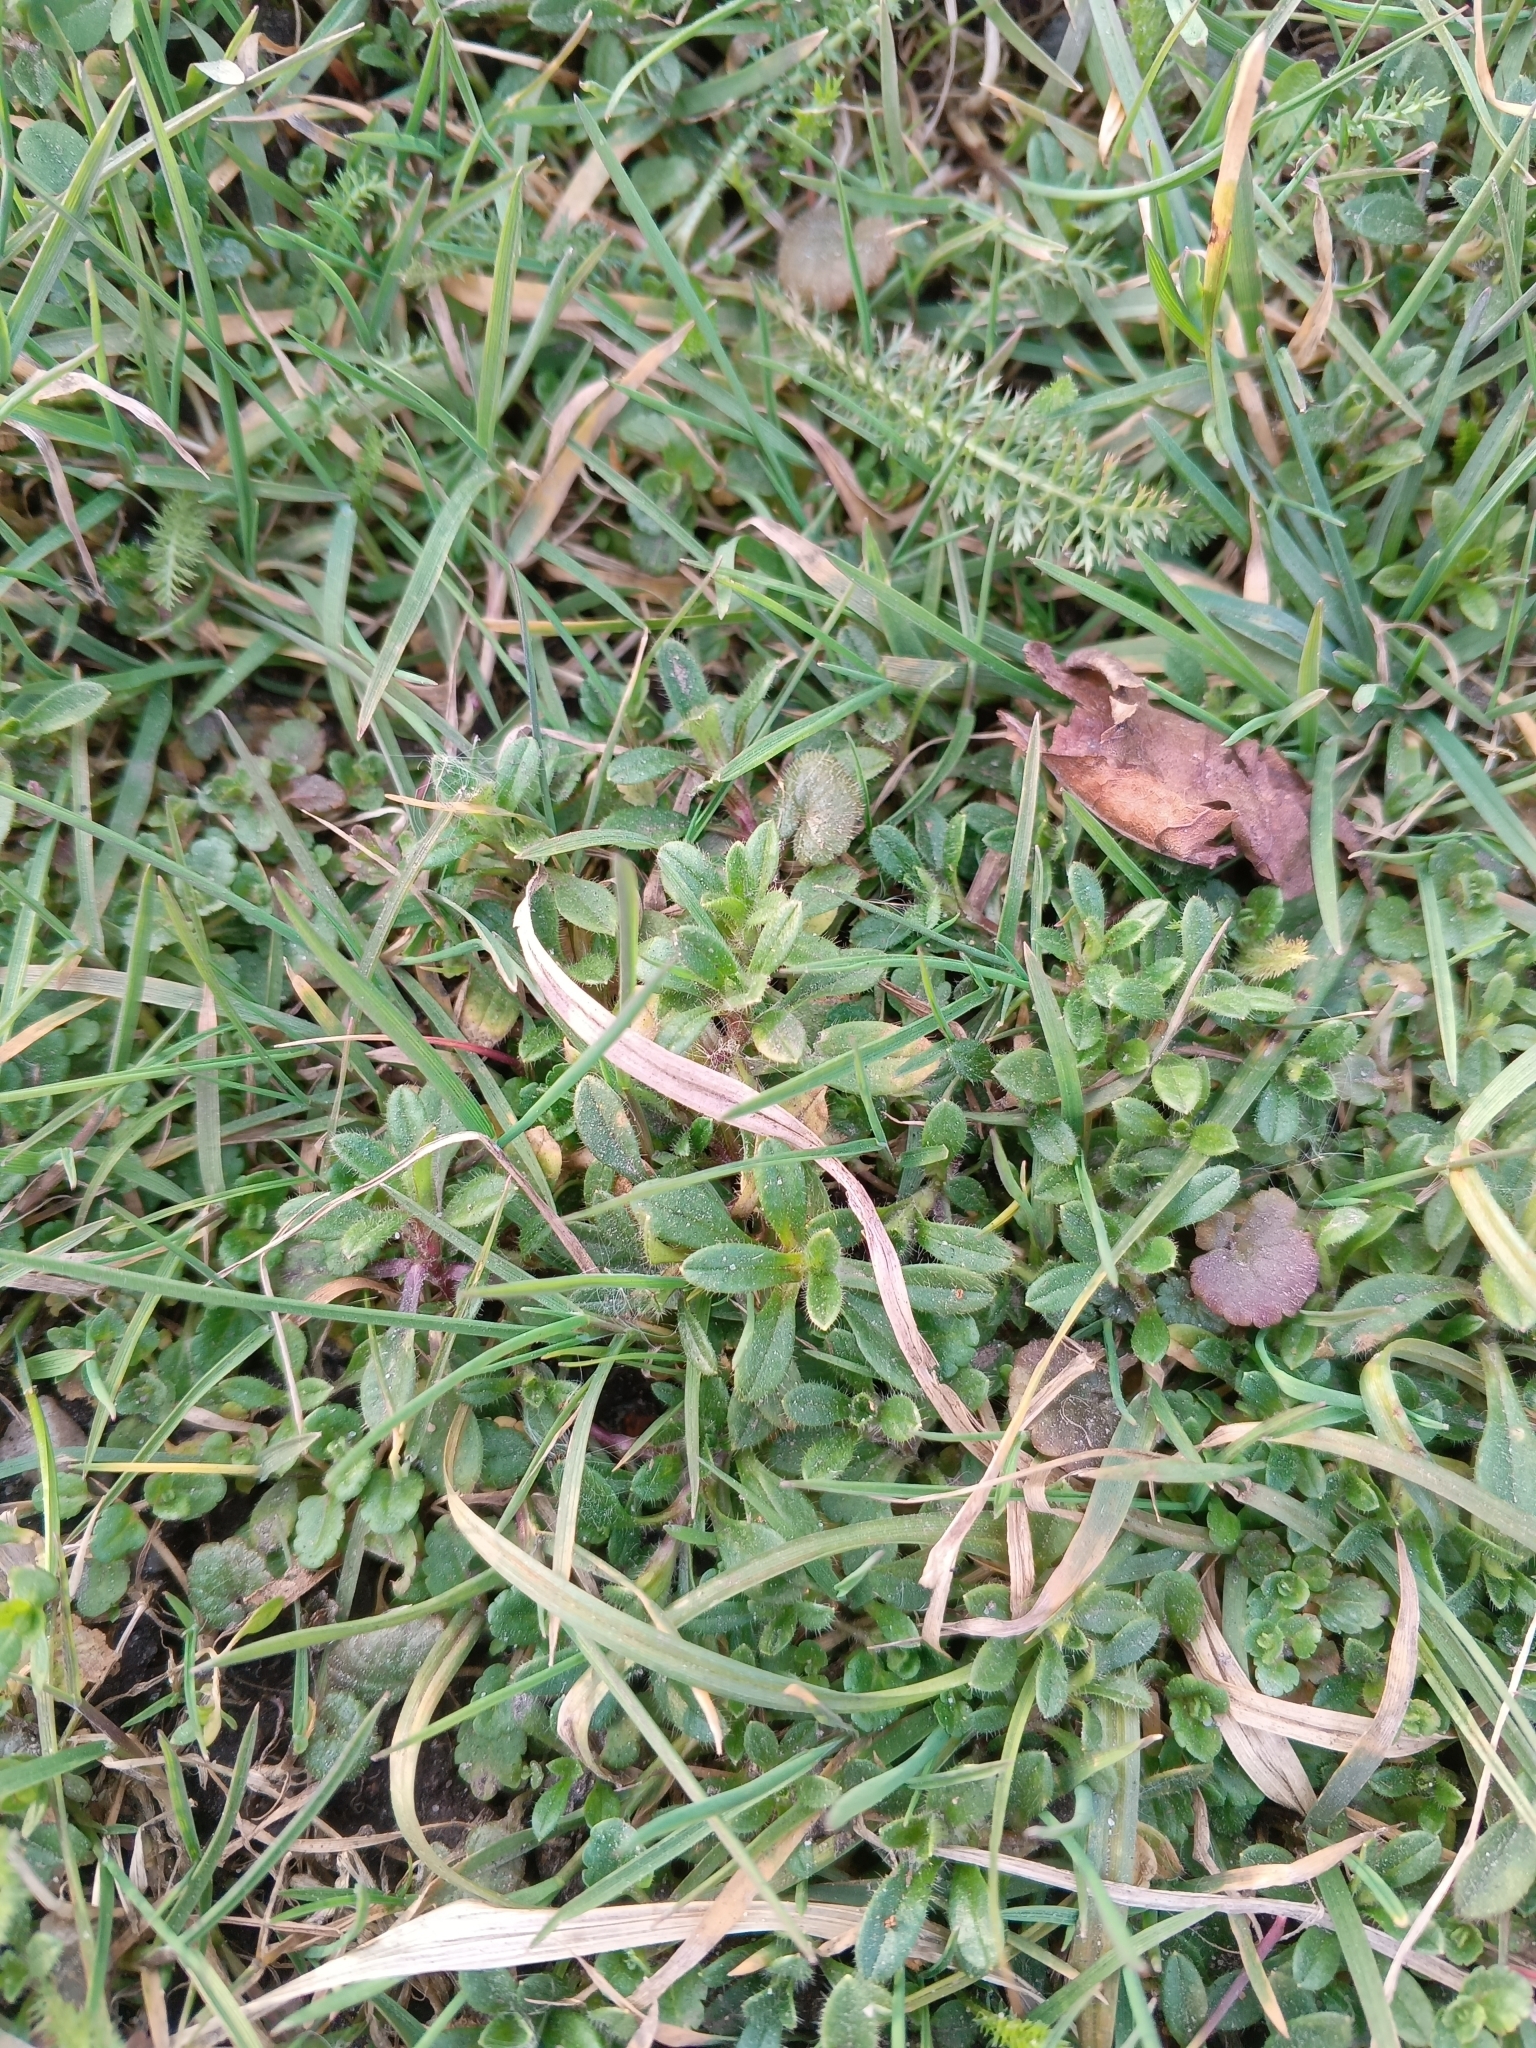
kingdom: Plantae
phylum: Tracheophyta
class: Magnoliopsida
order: Caryophyllales
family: Caryophyllaceae
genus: Cerastium
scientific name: Cerastium holosteoides
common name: Big chickweed
